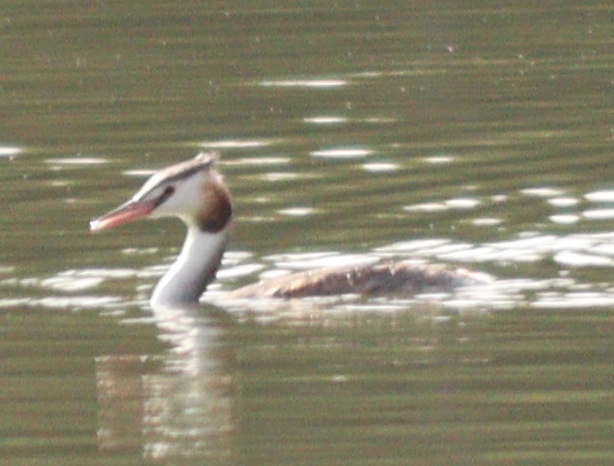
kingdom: Animalia
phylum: Chordata
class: Aves
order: Podicipediformes
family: Podicipedidae
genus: Podiceps
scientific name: Podiceps cristatus
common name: Great crested grebe
